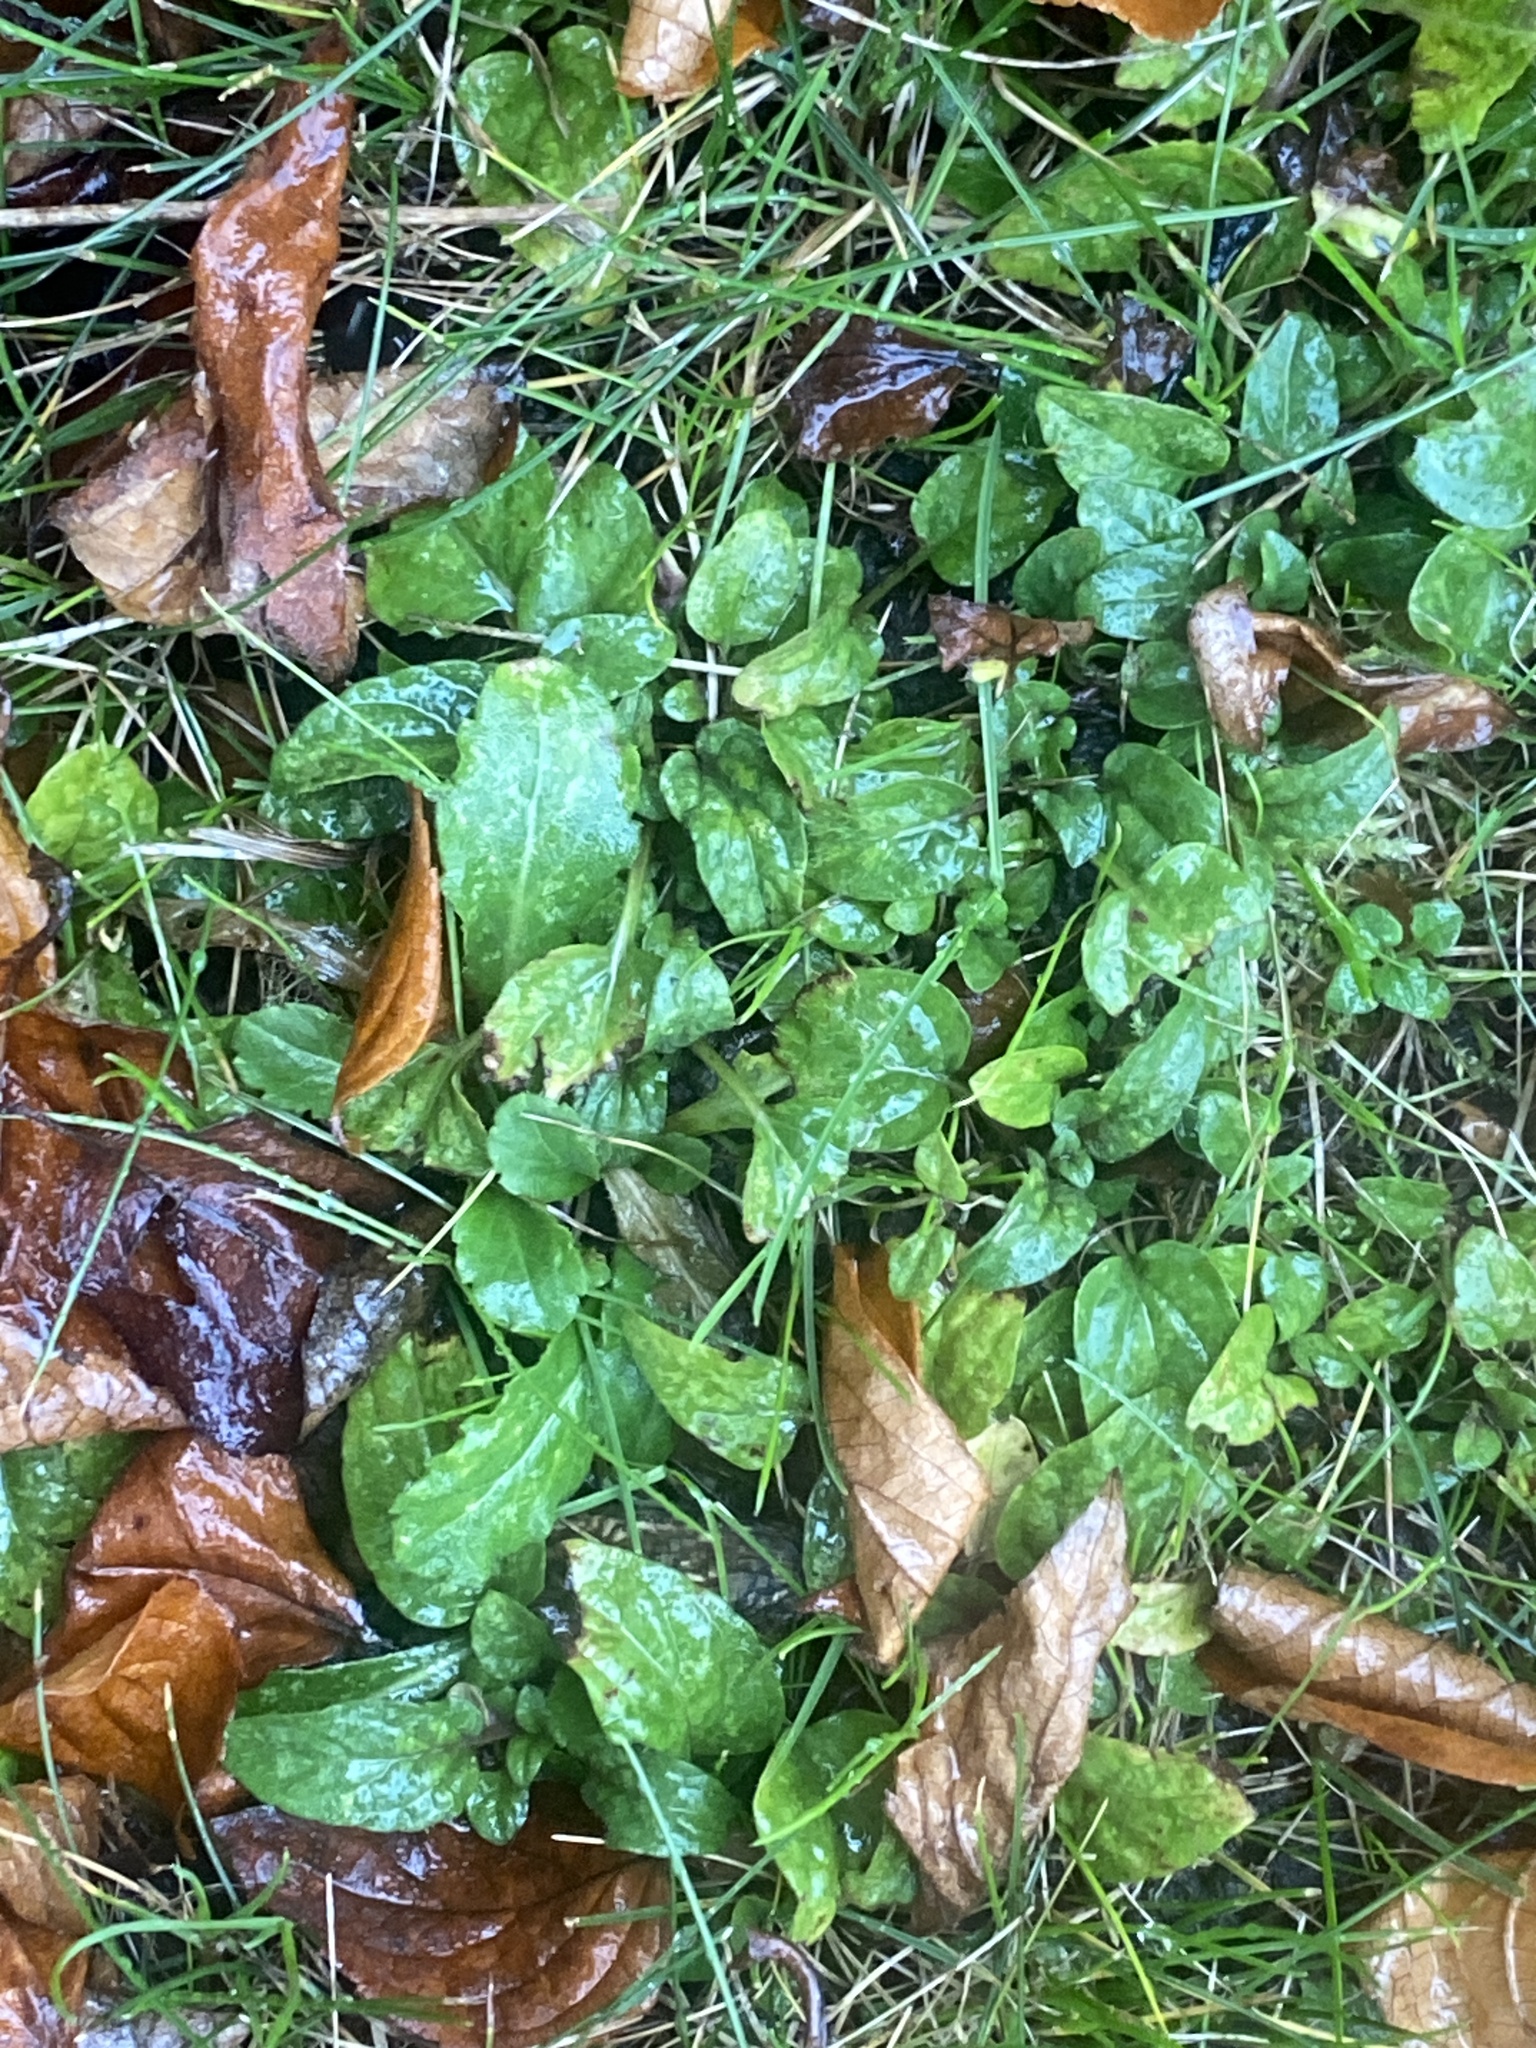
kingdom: Plantae
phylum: Tracheophyta
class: Magnoliopsida
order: Lamiales
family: Lamiaceae
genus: Prunella
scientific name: Prunella vulgaris
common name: Heal-all
